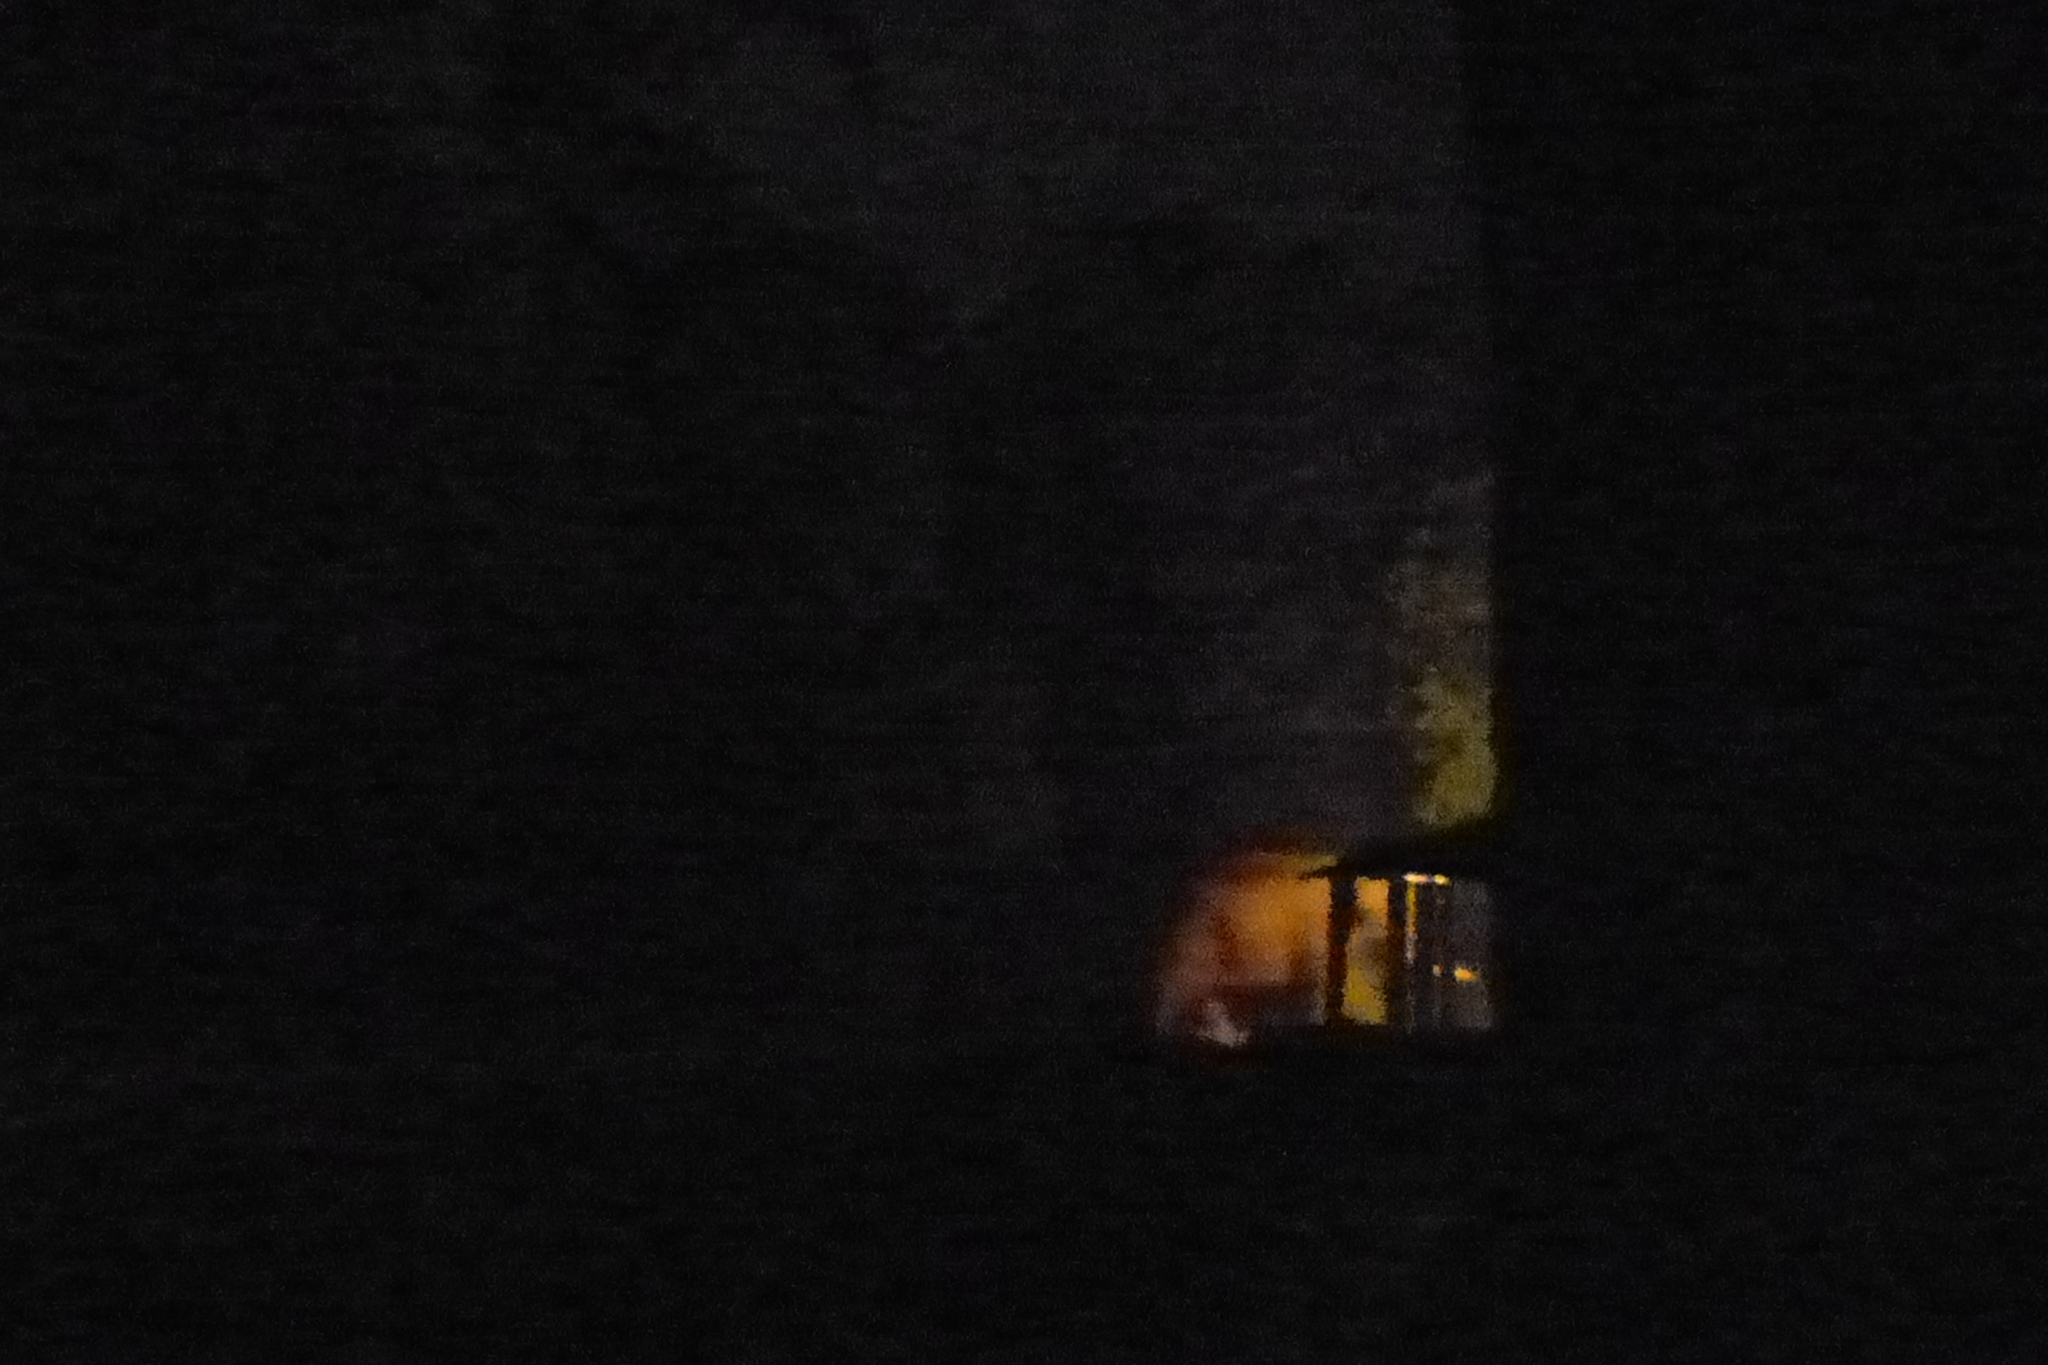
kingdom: Animalia
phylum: Chordata
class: Mammalia
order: Proboscidea
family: Elephantidae
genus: Elephas
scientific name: Elephas maximus
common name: Asian elephant
